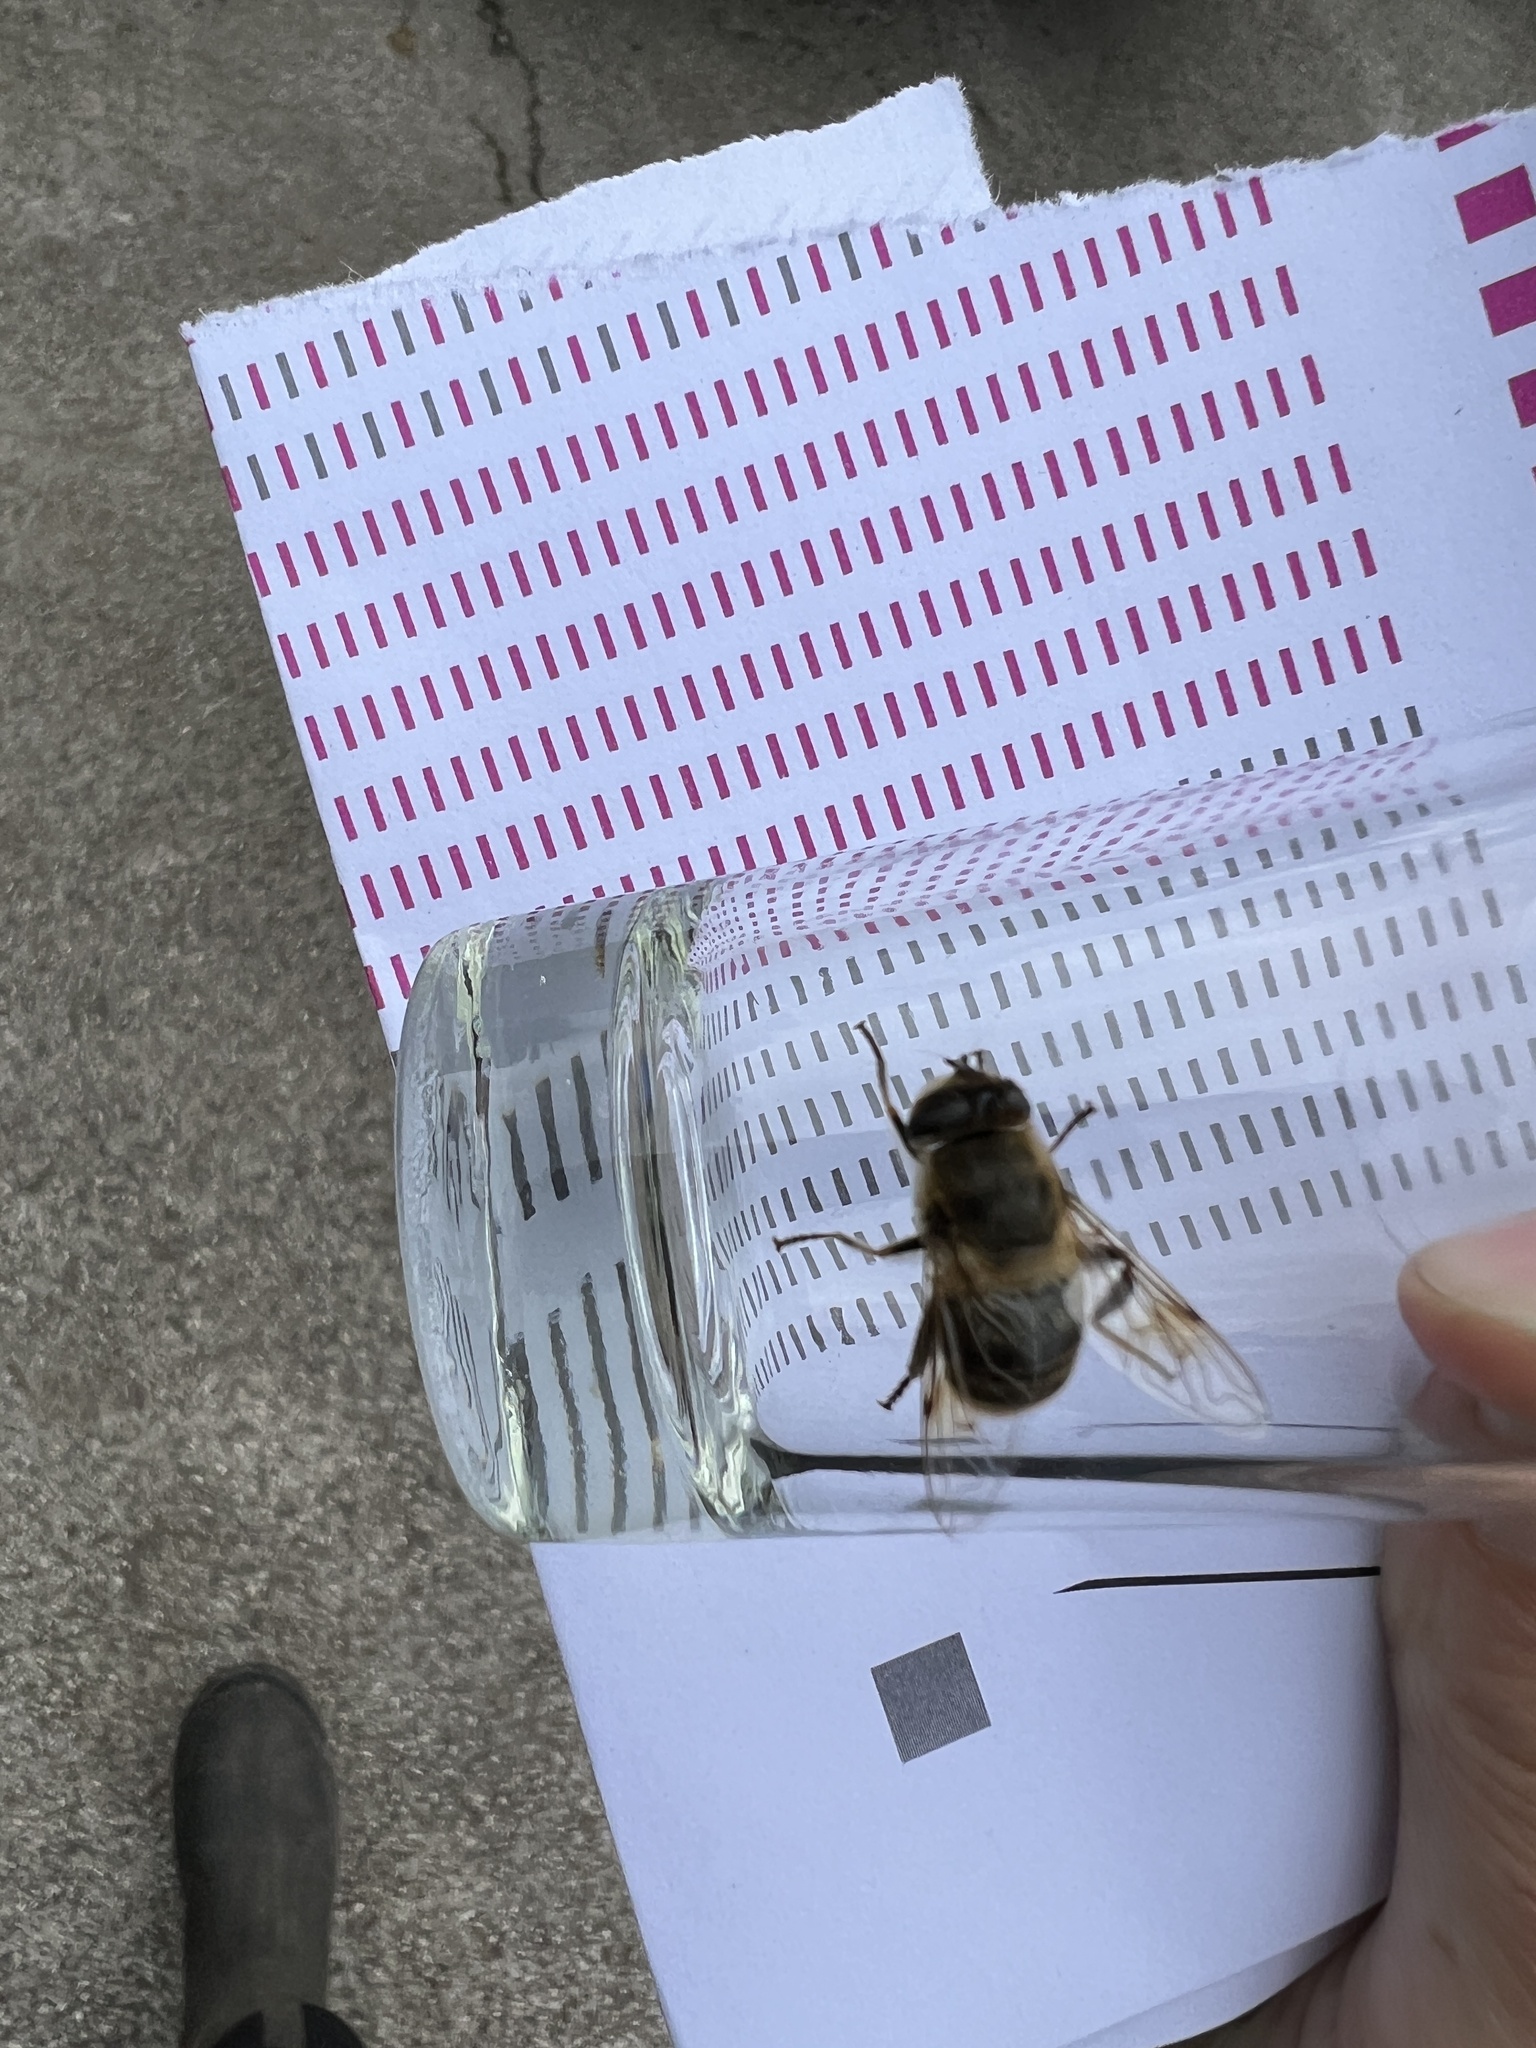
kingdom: Animalia
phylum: Arthropoda
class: Insecta
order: Diptera
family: Syrphidae
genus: Eristalis
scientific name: Eristalis tenax
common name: Drone fly
